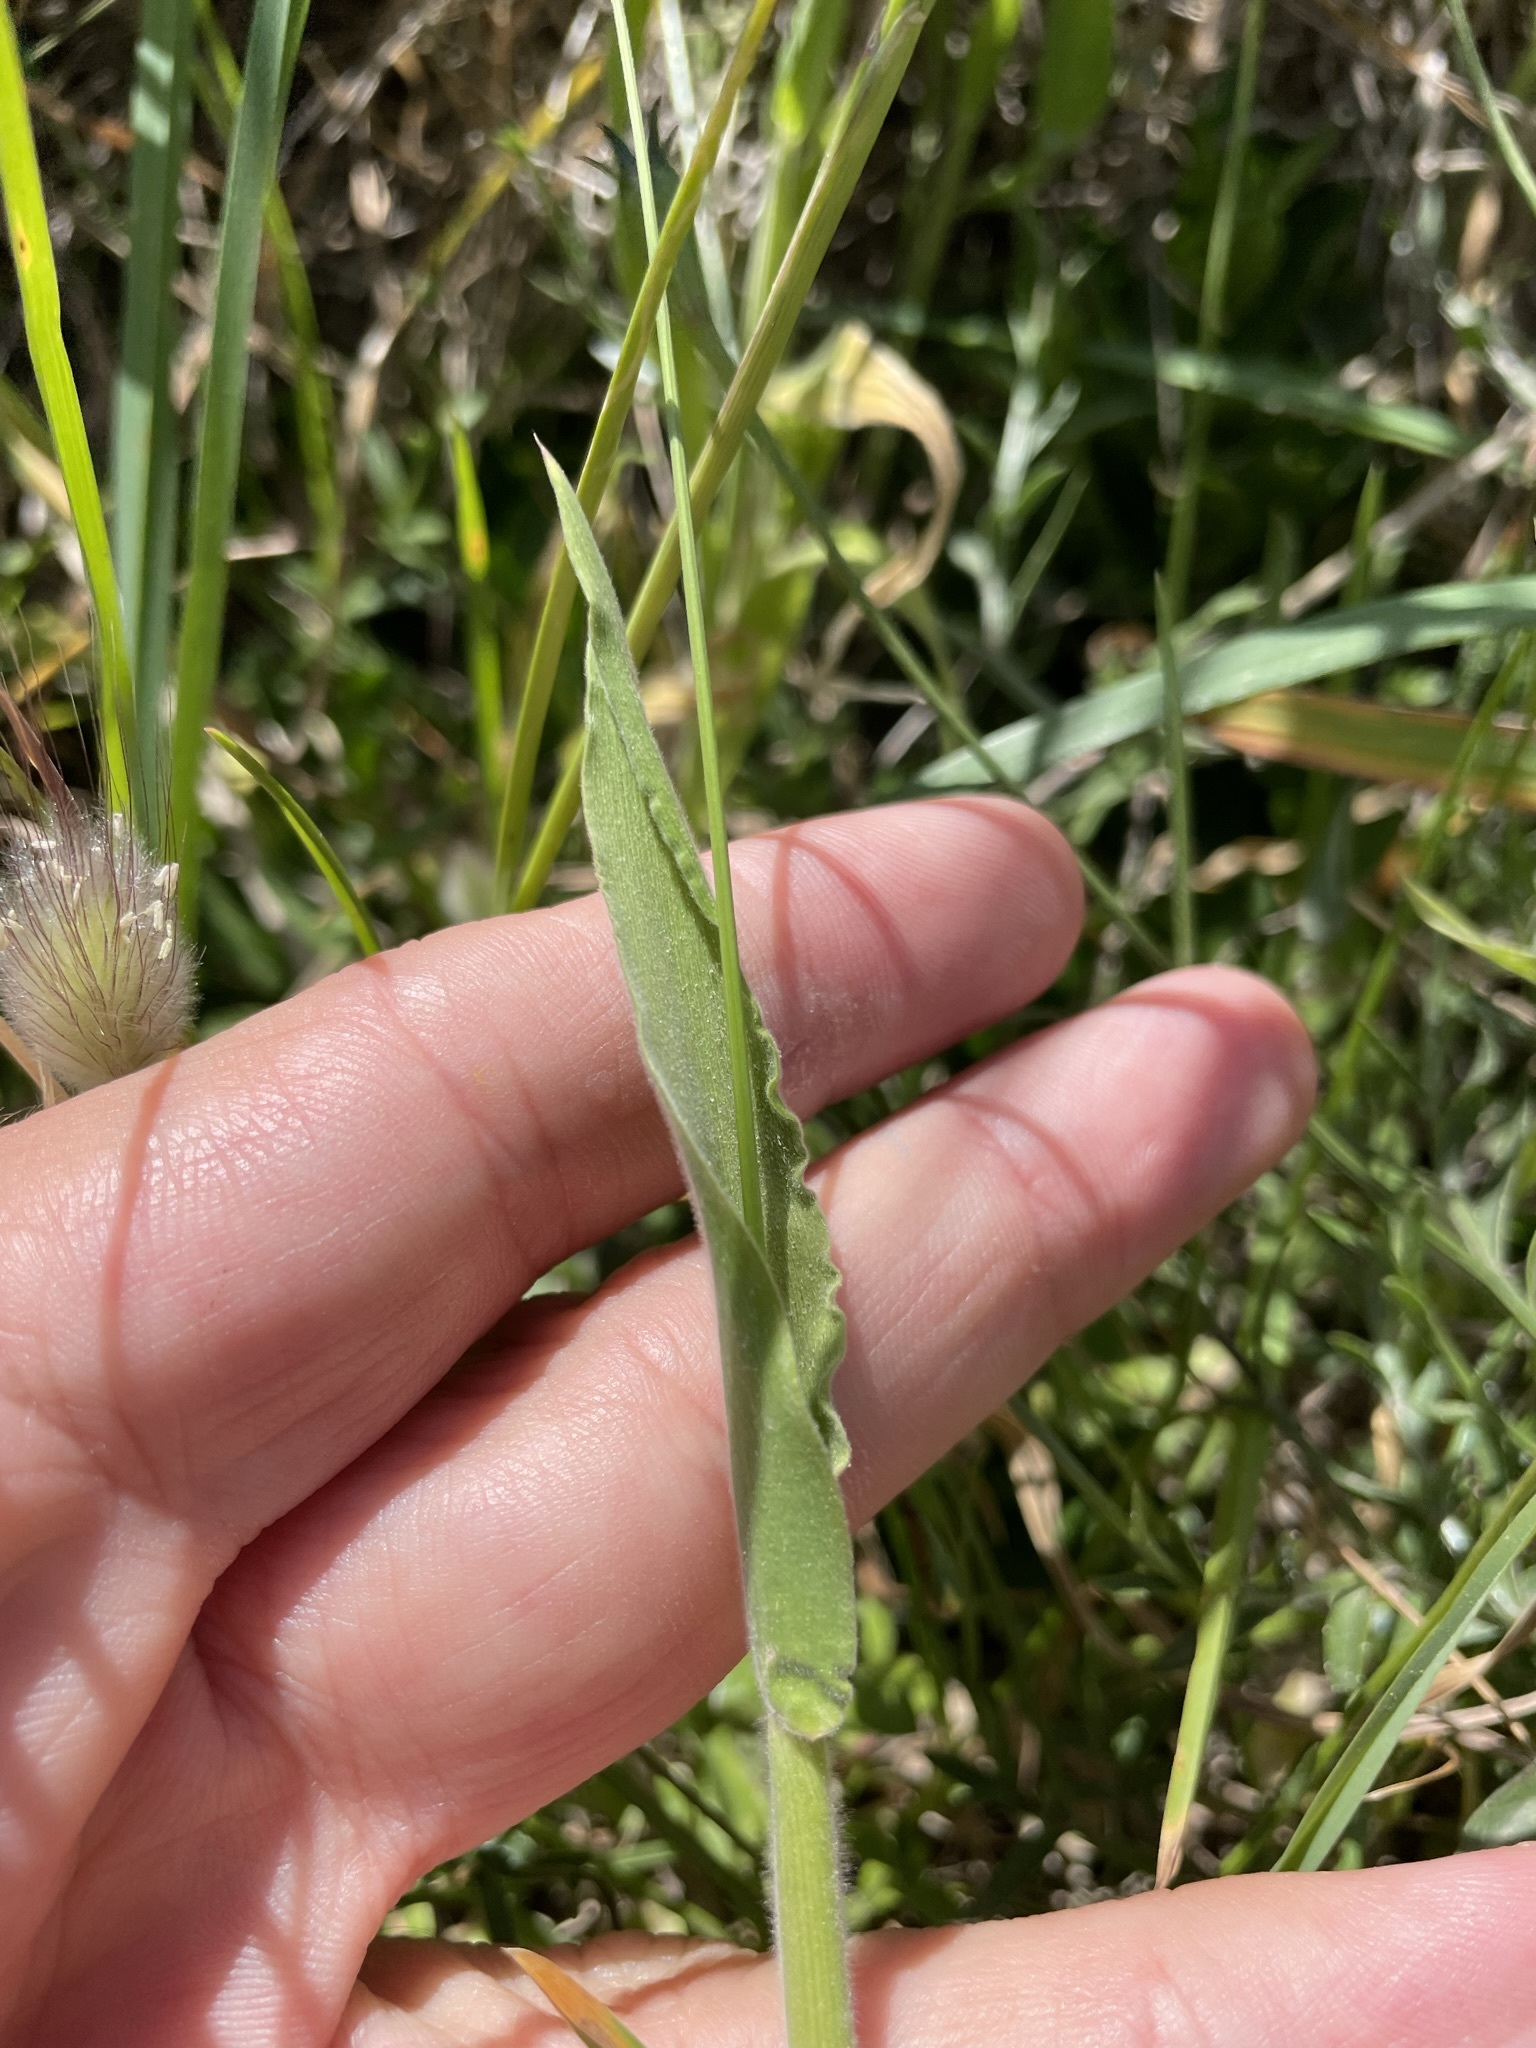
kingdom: Plantae
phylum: Tracheophyta
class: Liliopsida
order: Poales
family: Poaceae
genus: Lagurus
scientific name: Lagurus ovatus
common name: Hare's-tail
